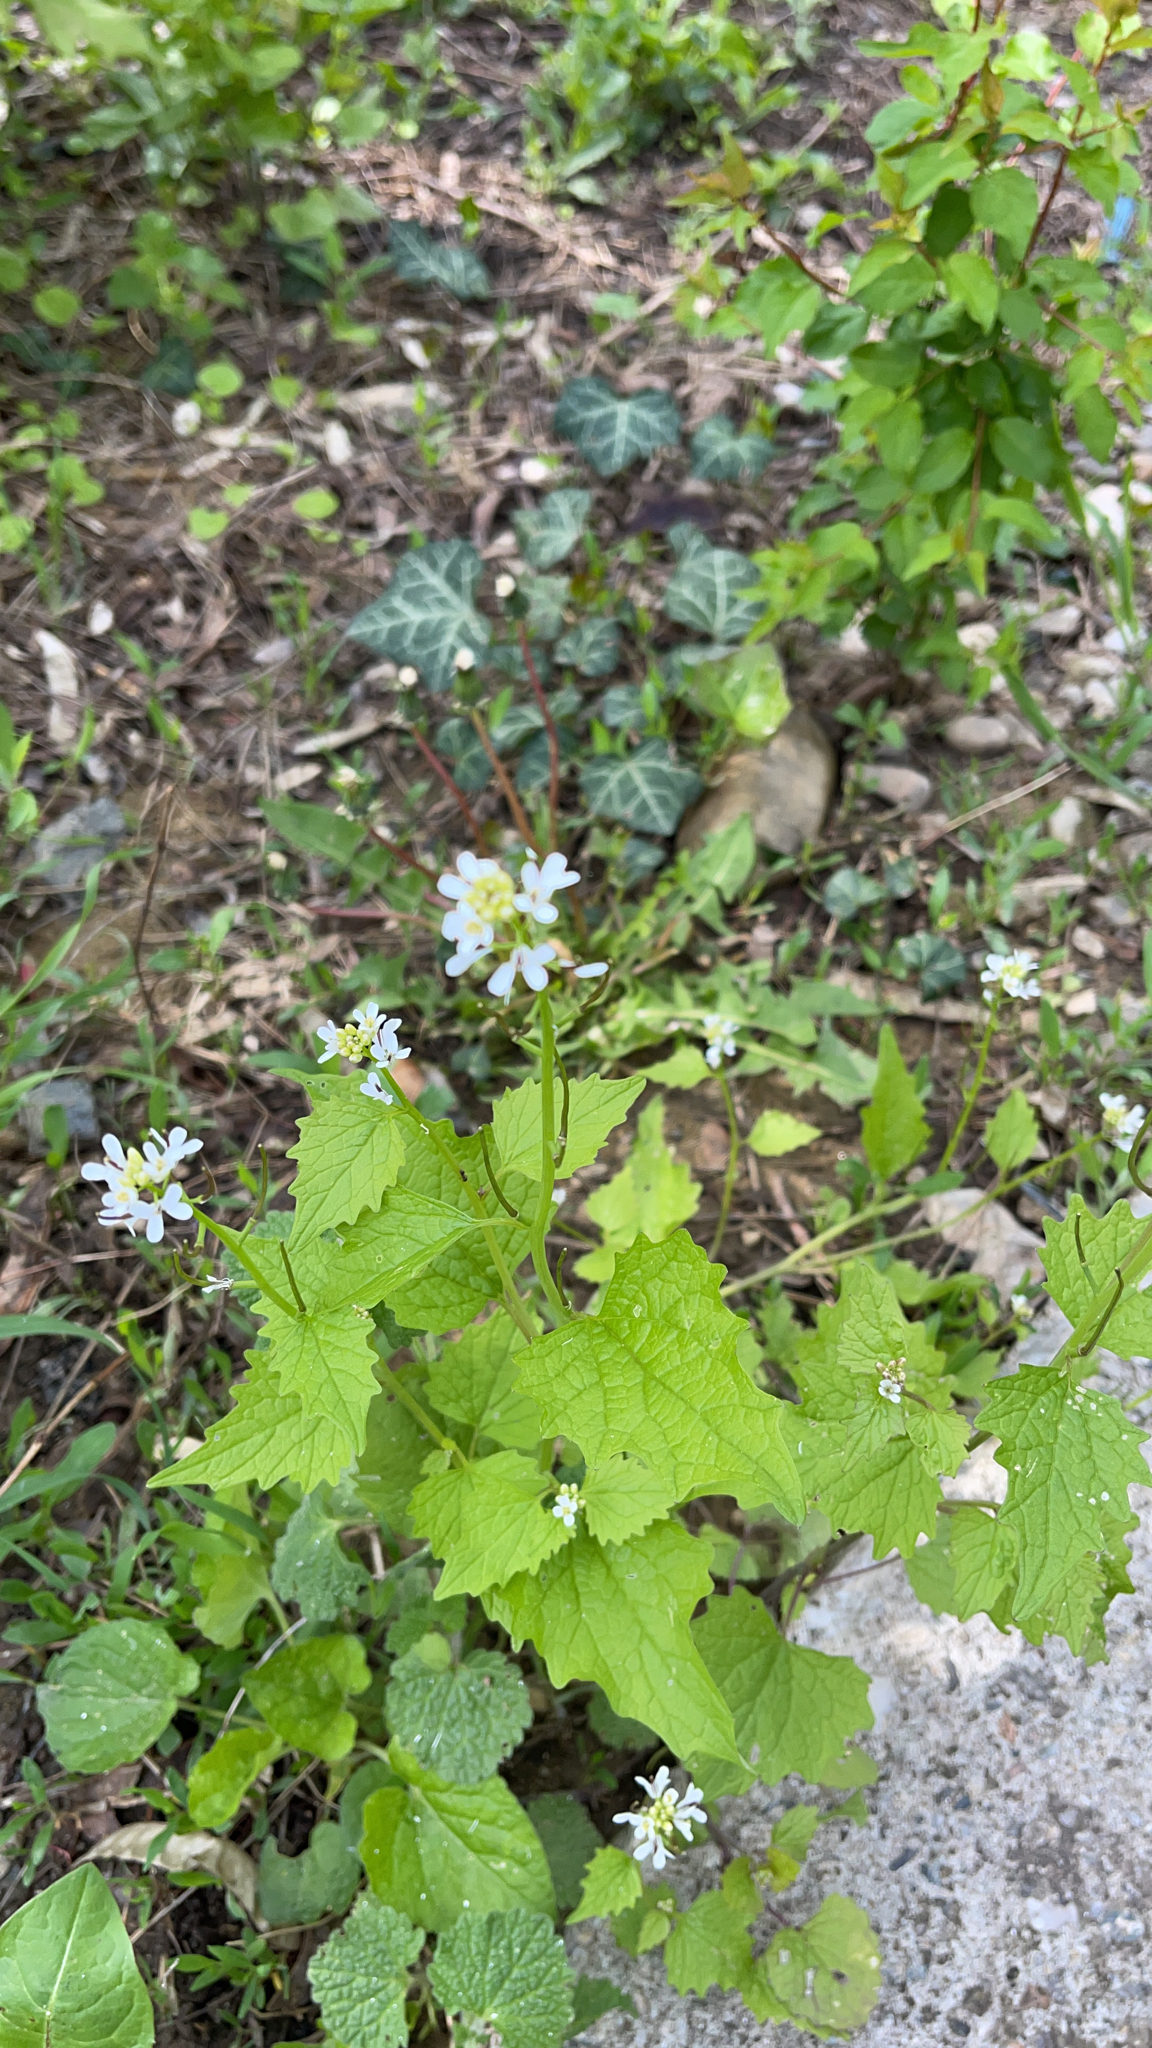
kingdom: Plantae
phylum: Tracheophyta
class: Magnoliopsida
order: Brassicales
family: Brassicaceae
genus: Alliaria
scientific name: Alliaria petiolata
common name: Garlic mustard
